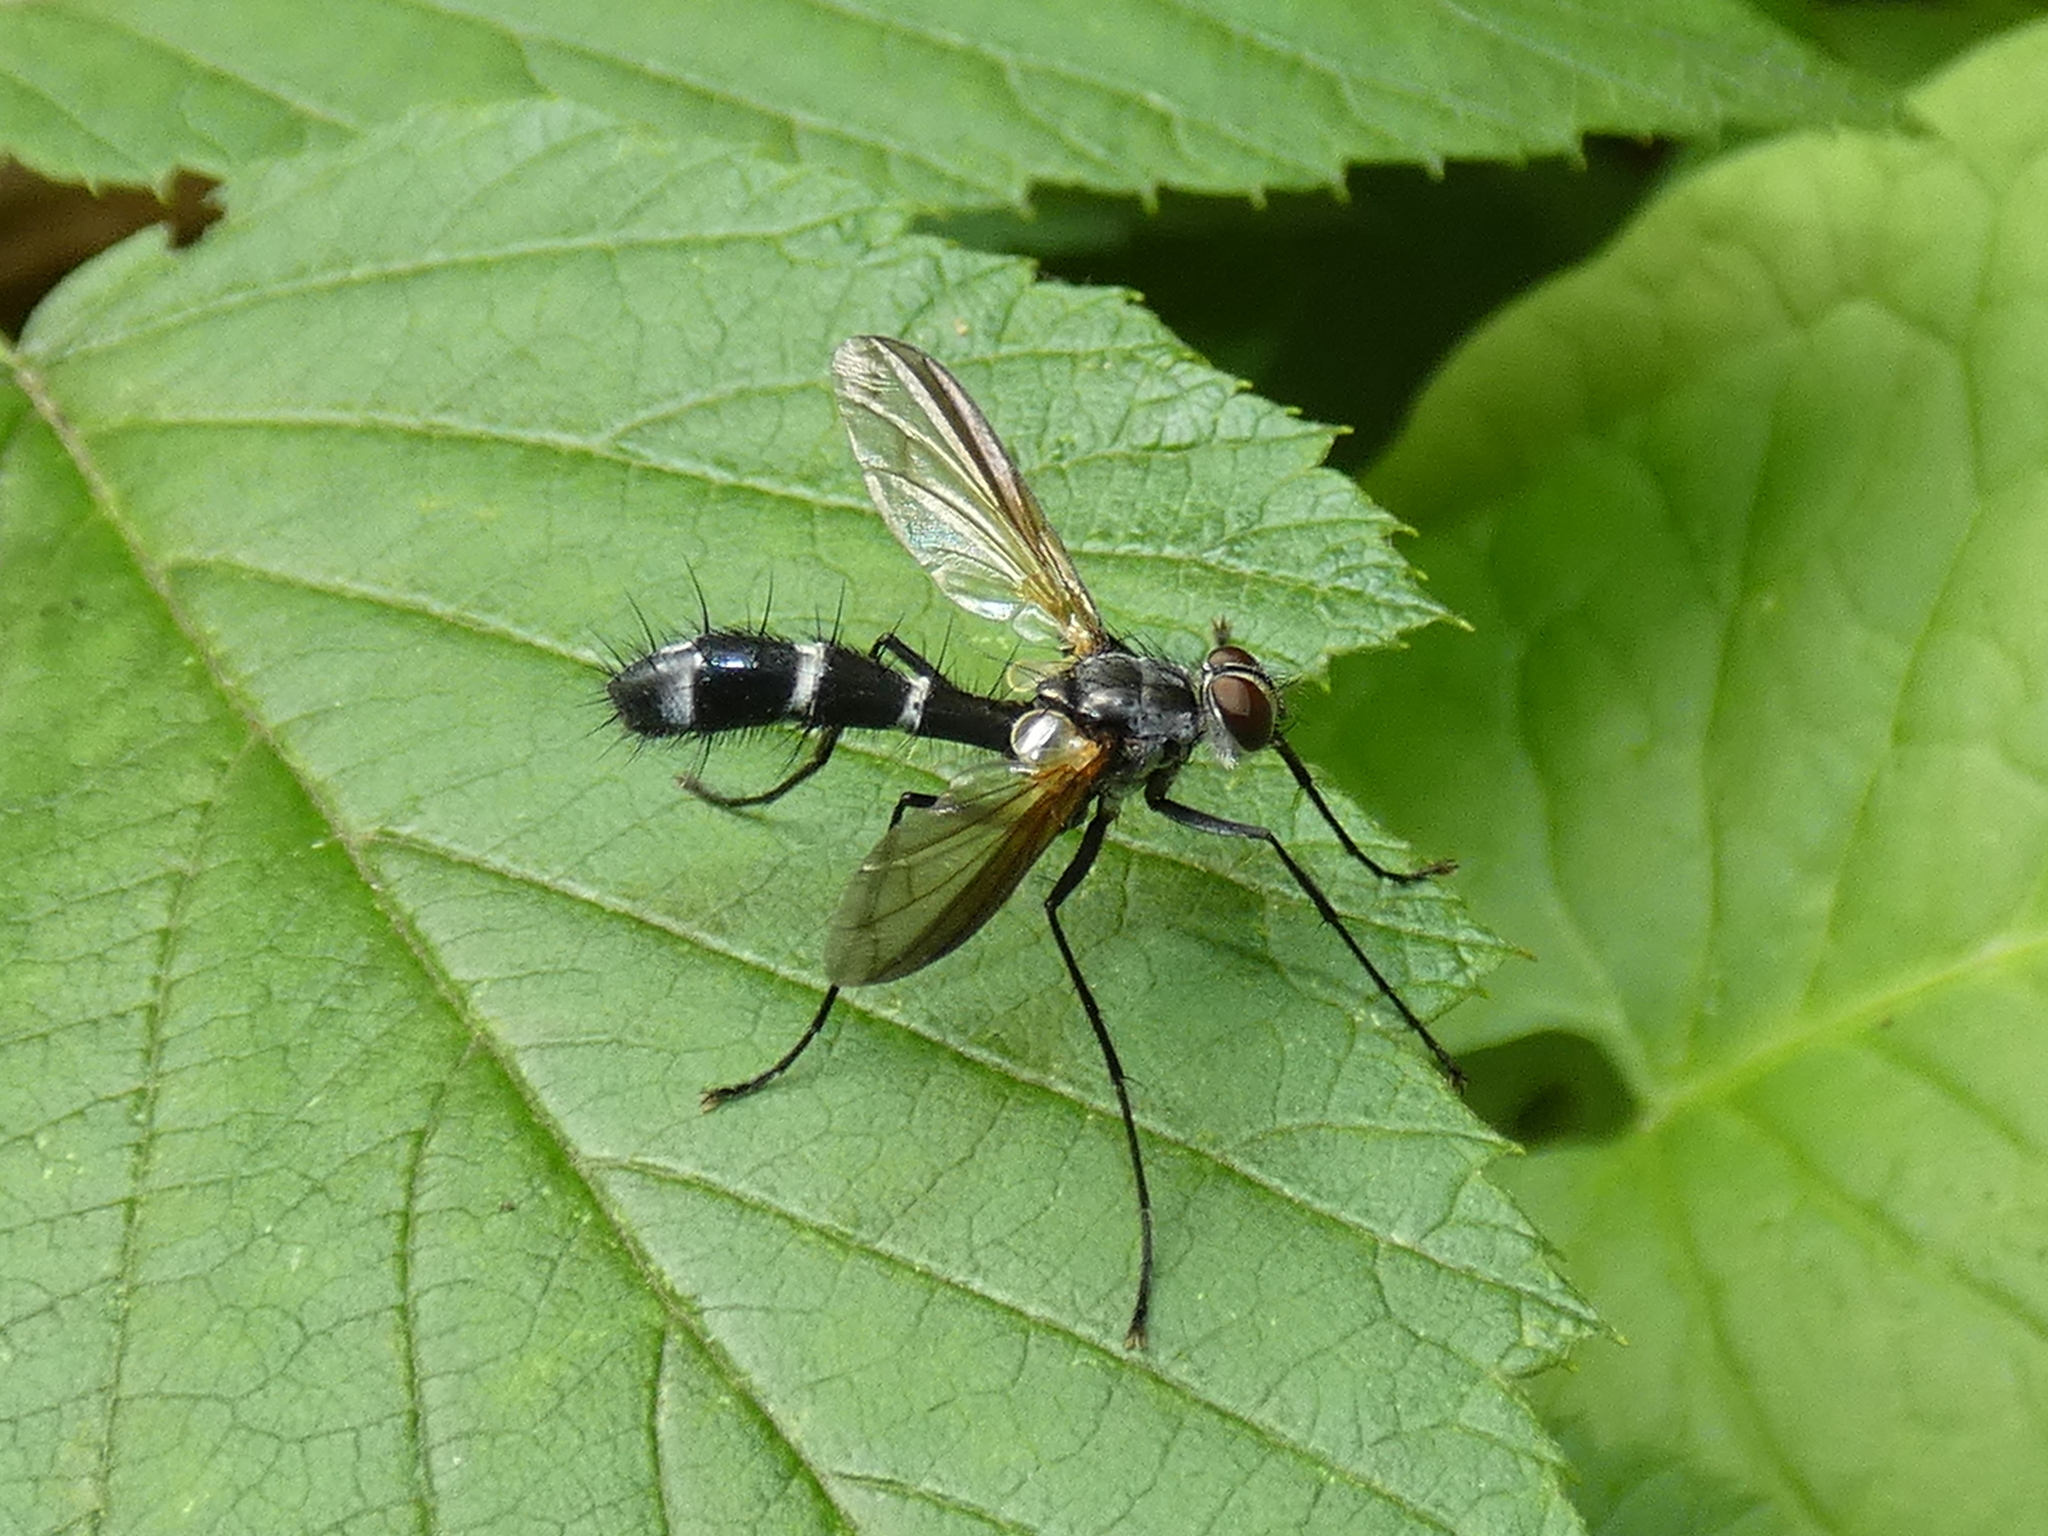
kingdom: Animalia
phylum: Arthropoda
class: Insecta
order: Diptera
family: Tachinidae
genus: Cordyligaster
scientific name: Cordyligaster septentrionalis
